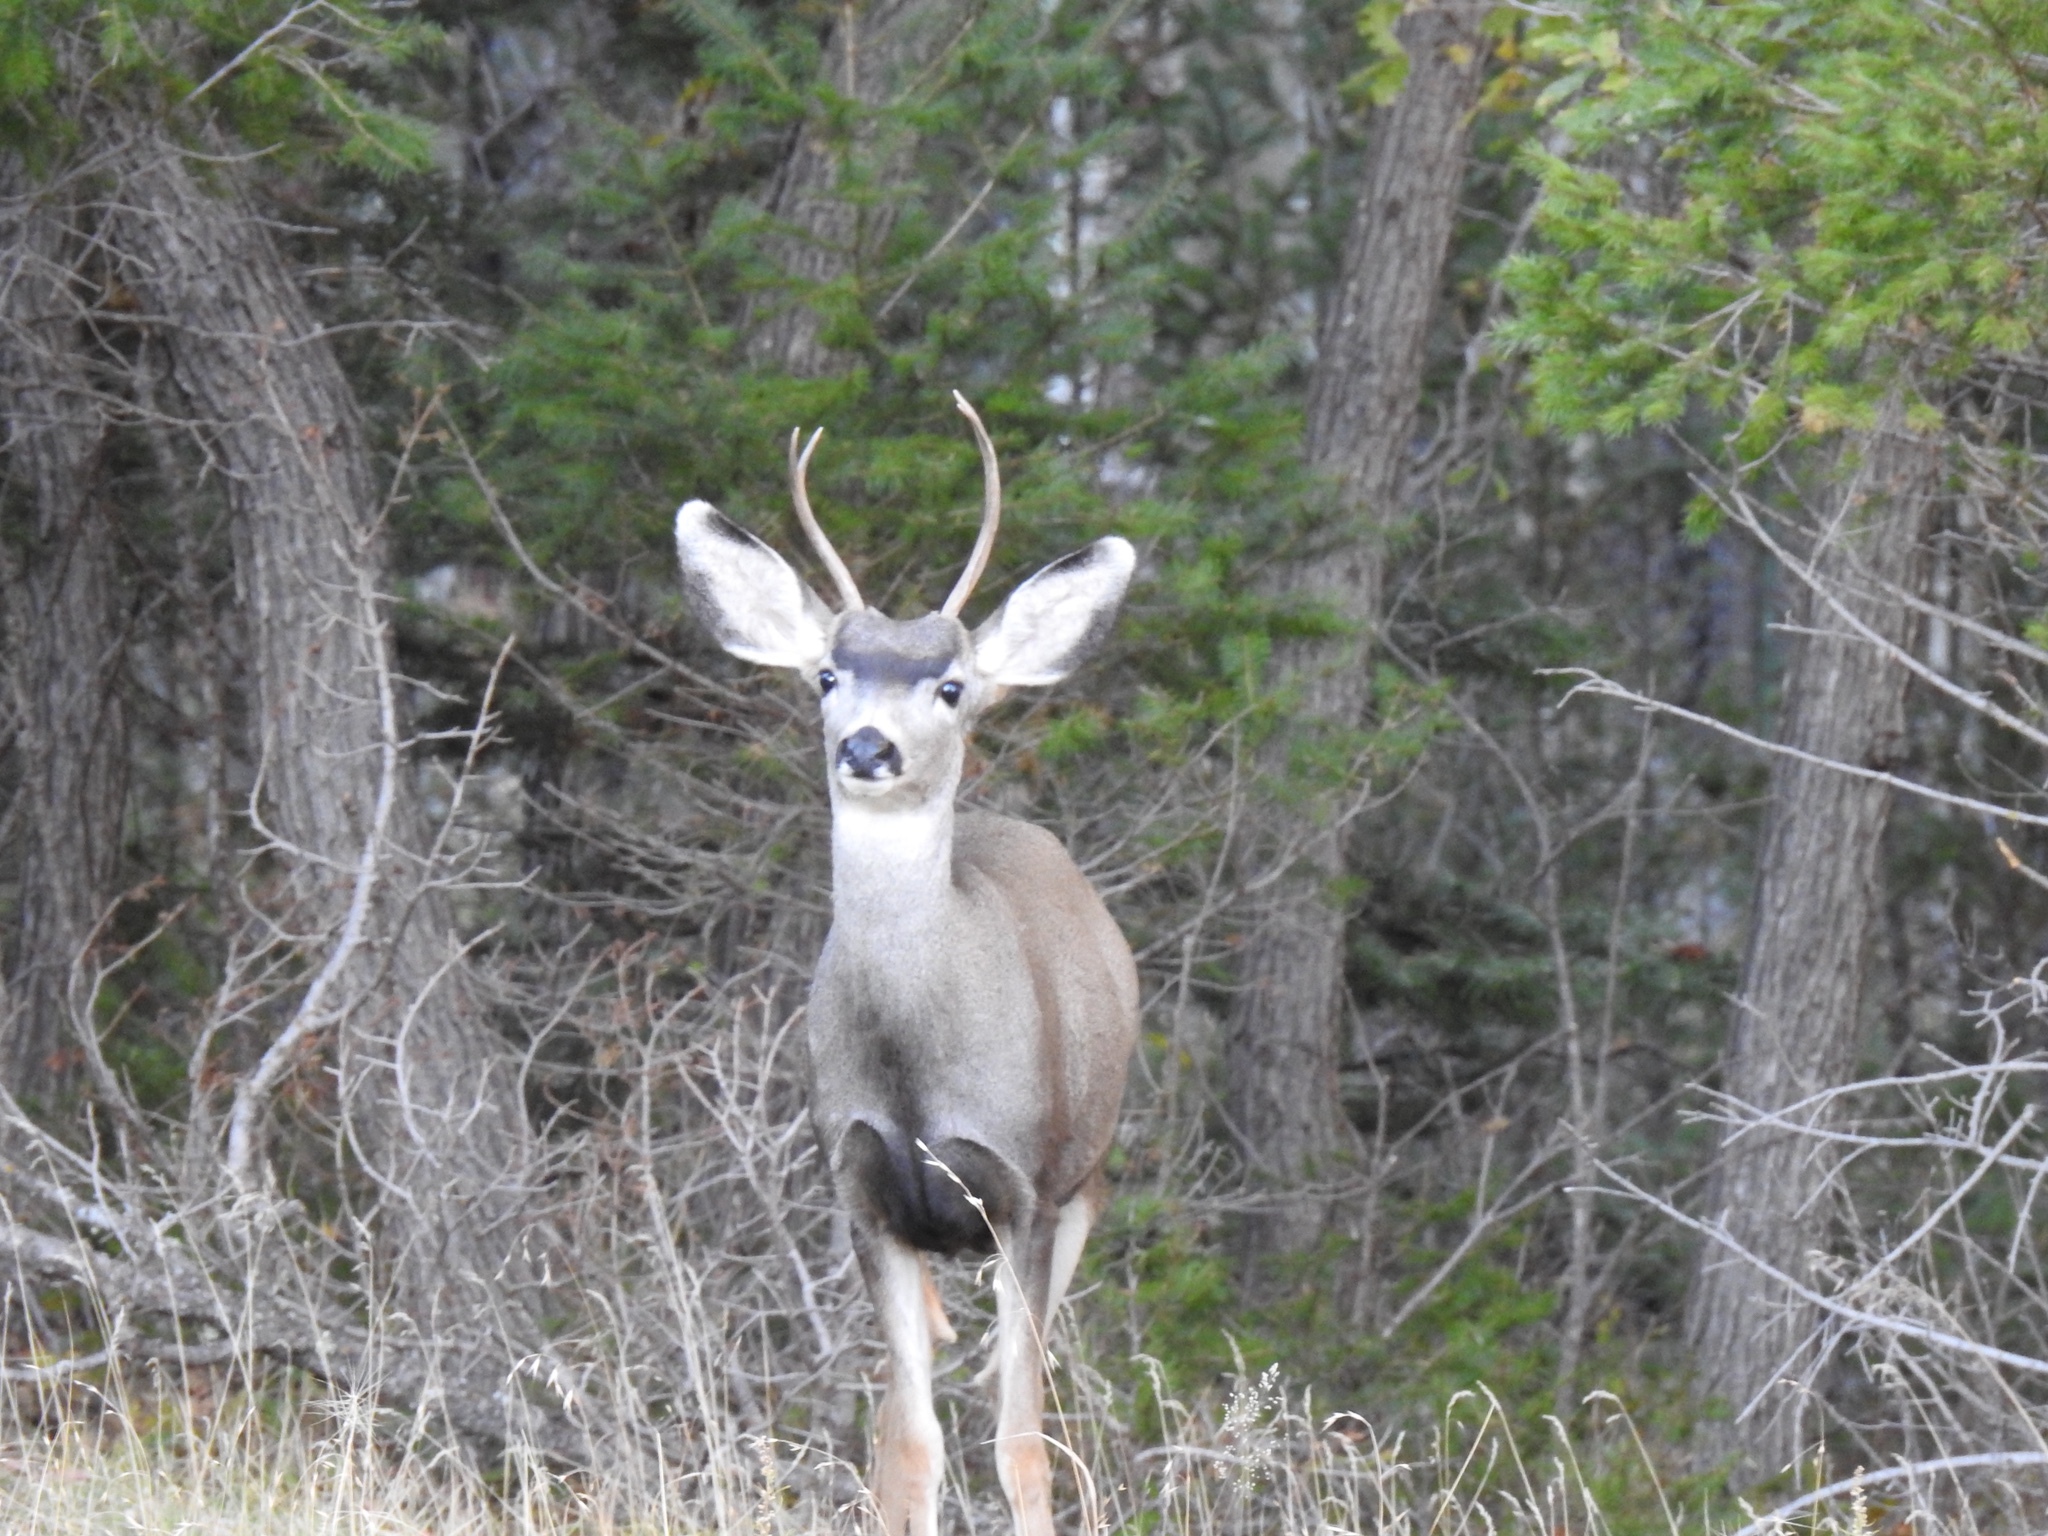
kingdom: Animalia
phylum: Chordata
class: Mammalia
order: Artiodactyla
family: Cervidae
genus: Odocoileus
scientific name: Odocoileus hemionus
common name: Mule deer
